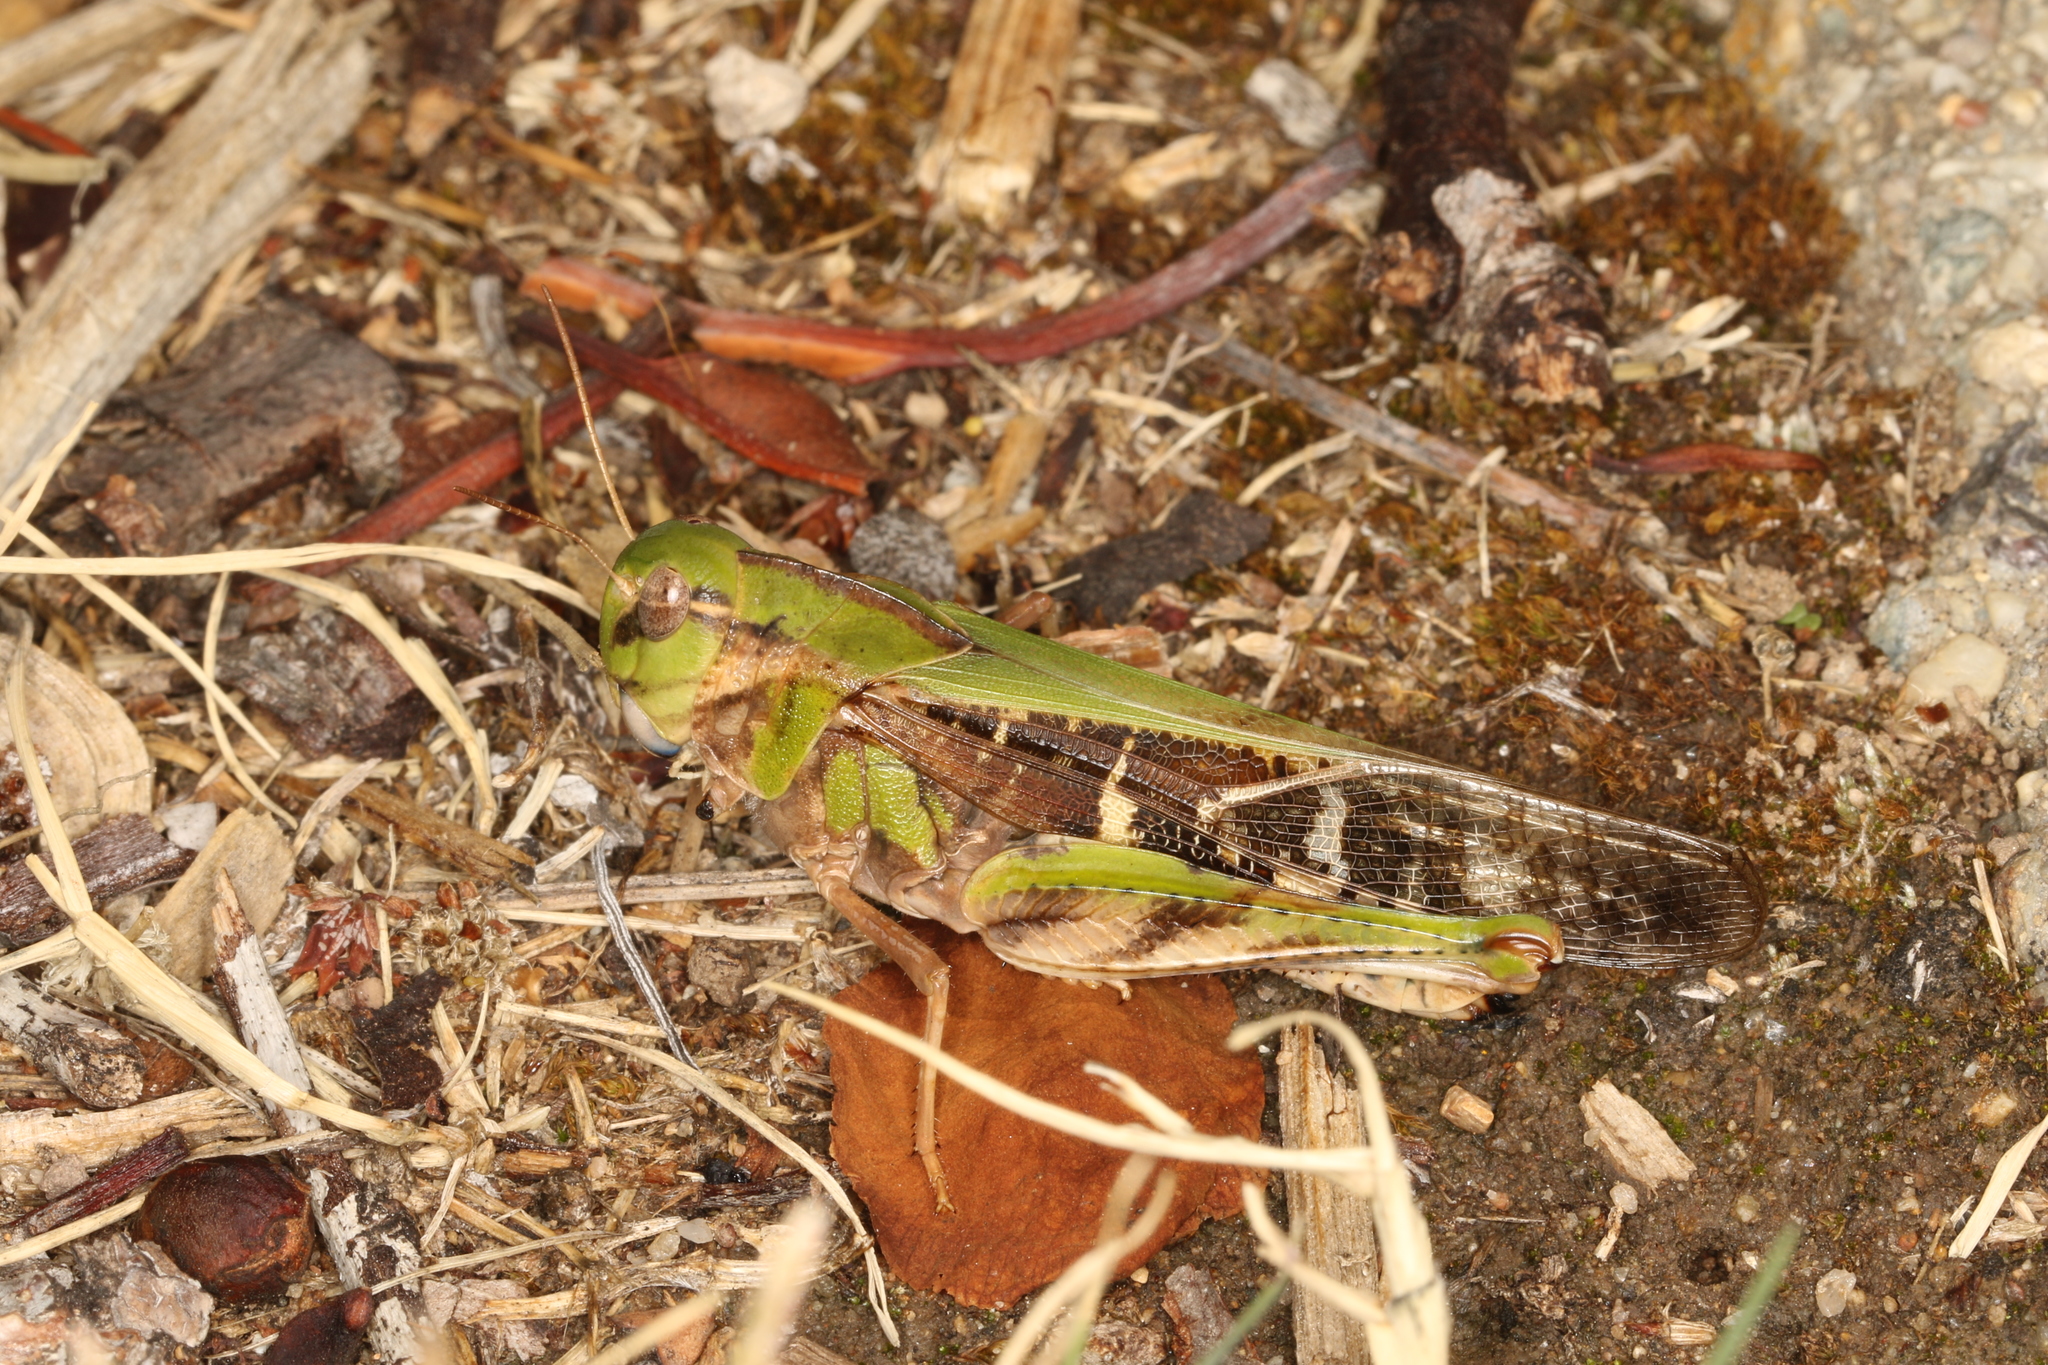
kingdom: Animalia
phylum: Arthropoda
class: Insecta
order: Orthoptera
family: Acrididae
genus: Gastrimargus
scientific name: Gastrimargus musicus
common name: Yellow-winged locust
